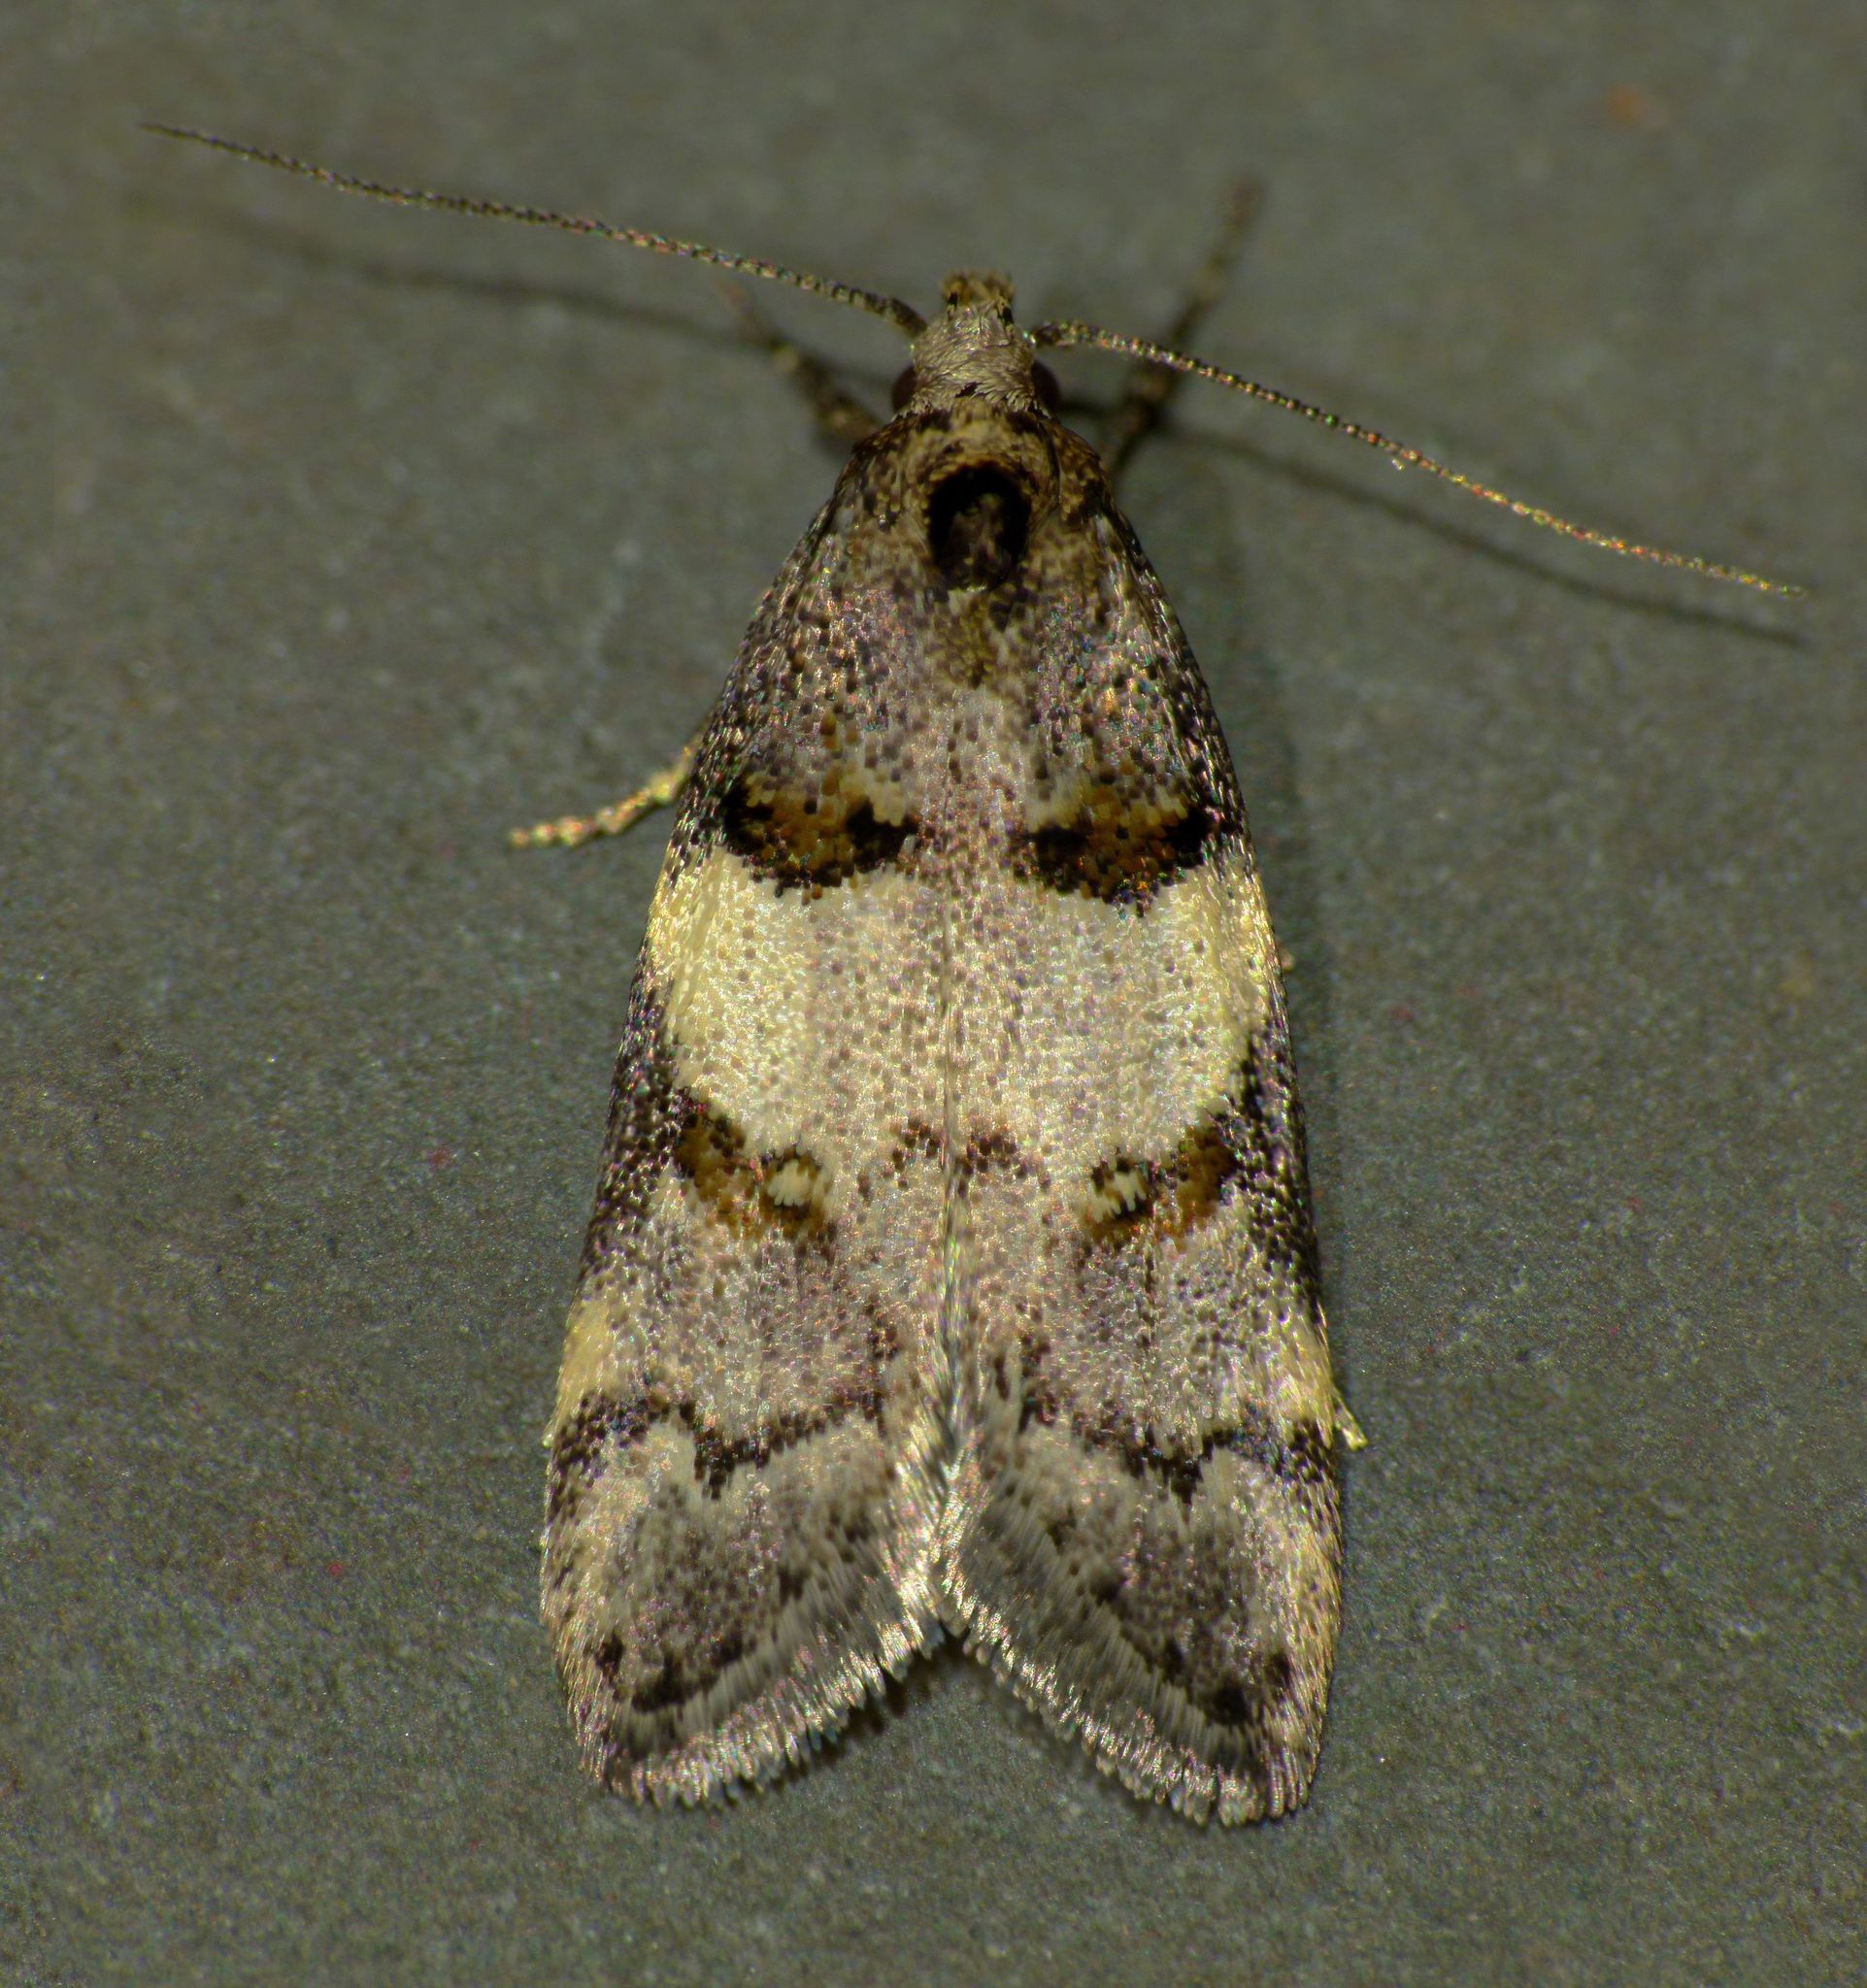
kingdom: Animalia
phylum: Arthropoda
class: Insecta
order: Lepidoptera
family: Oecophoridae
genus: Trachypepla
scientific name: Trachypepla contritella
